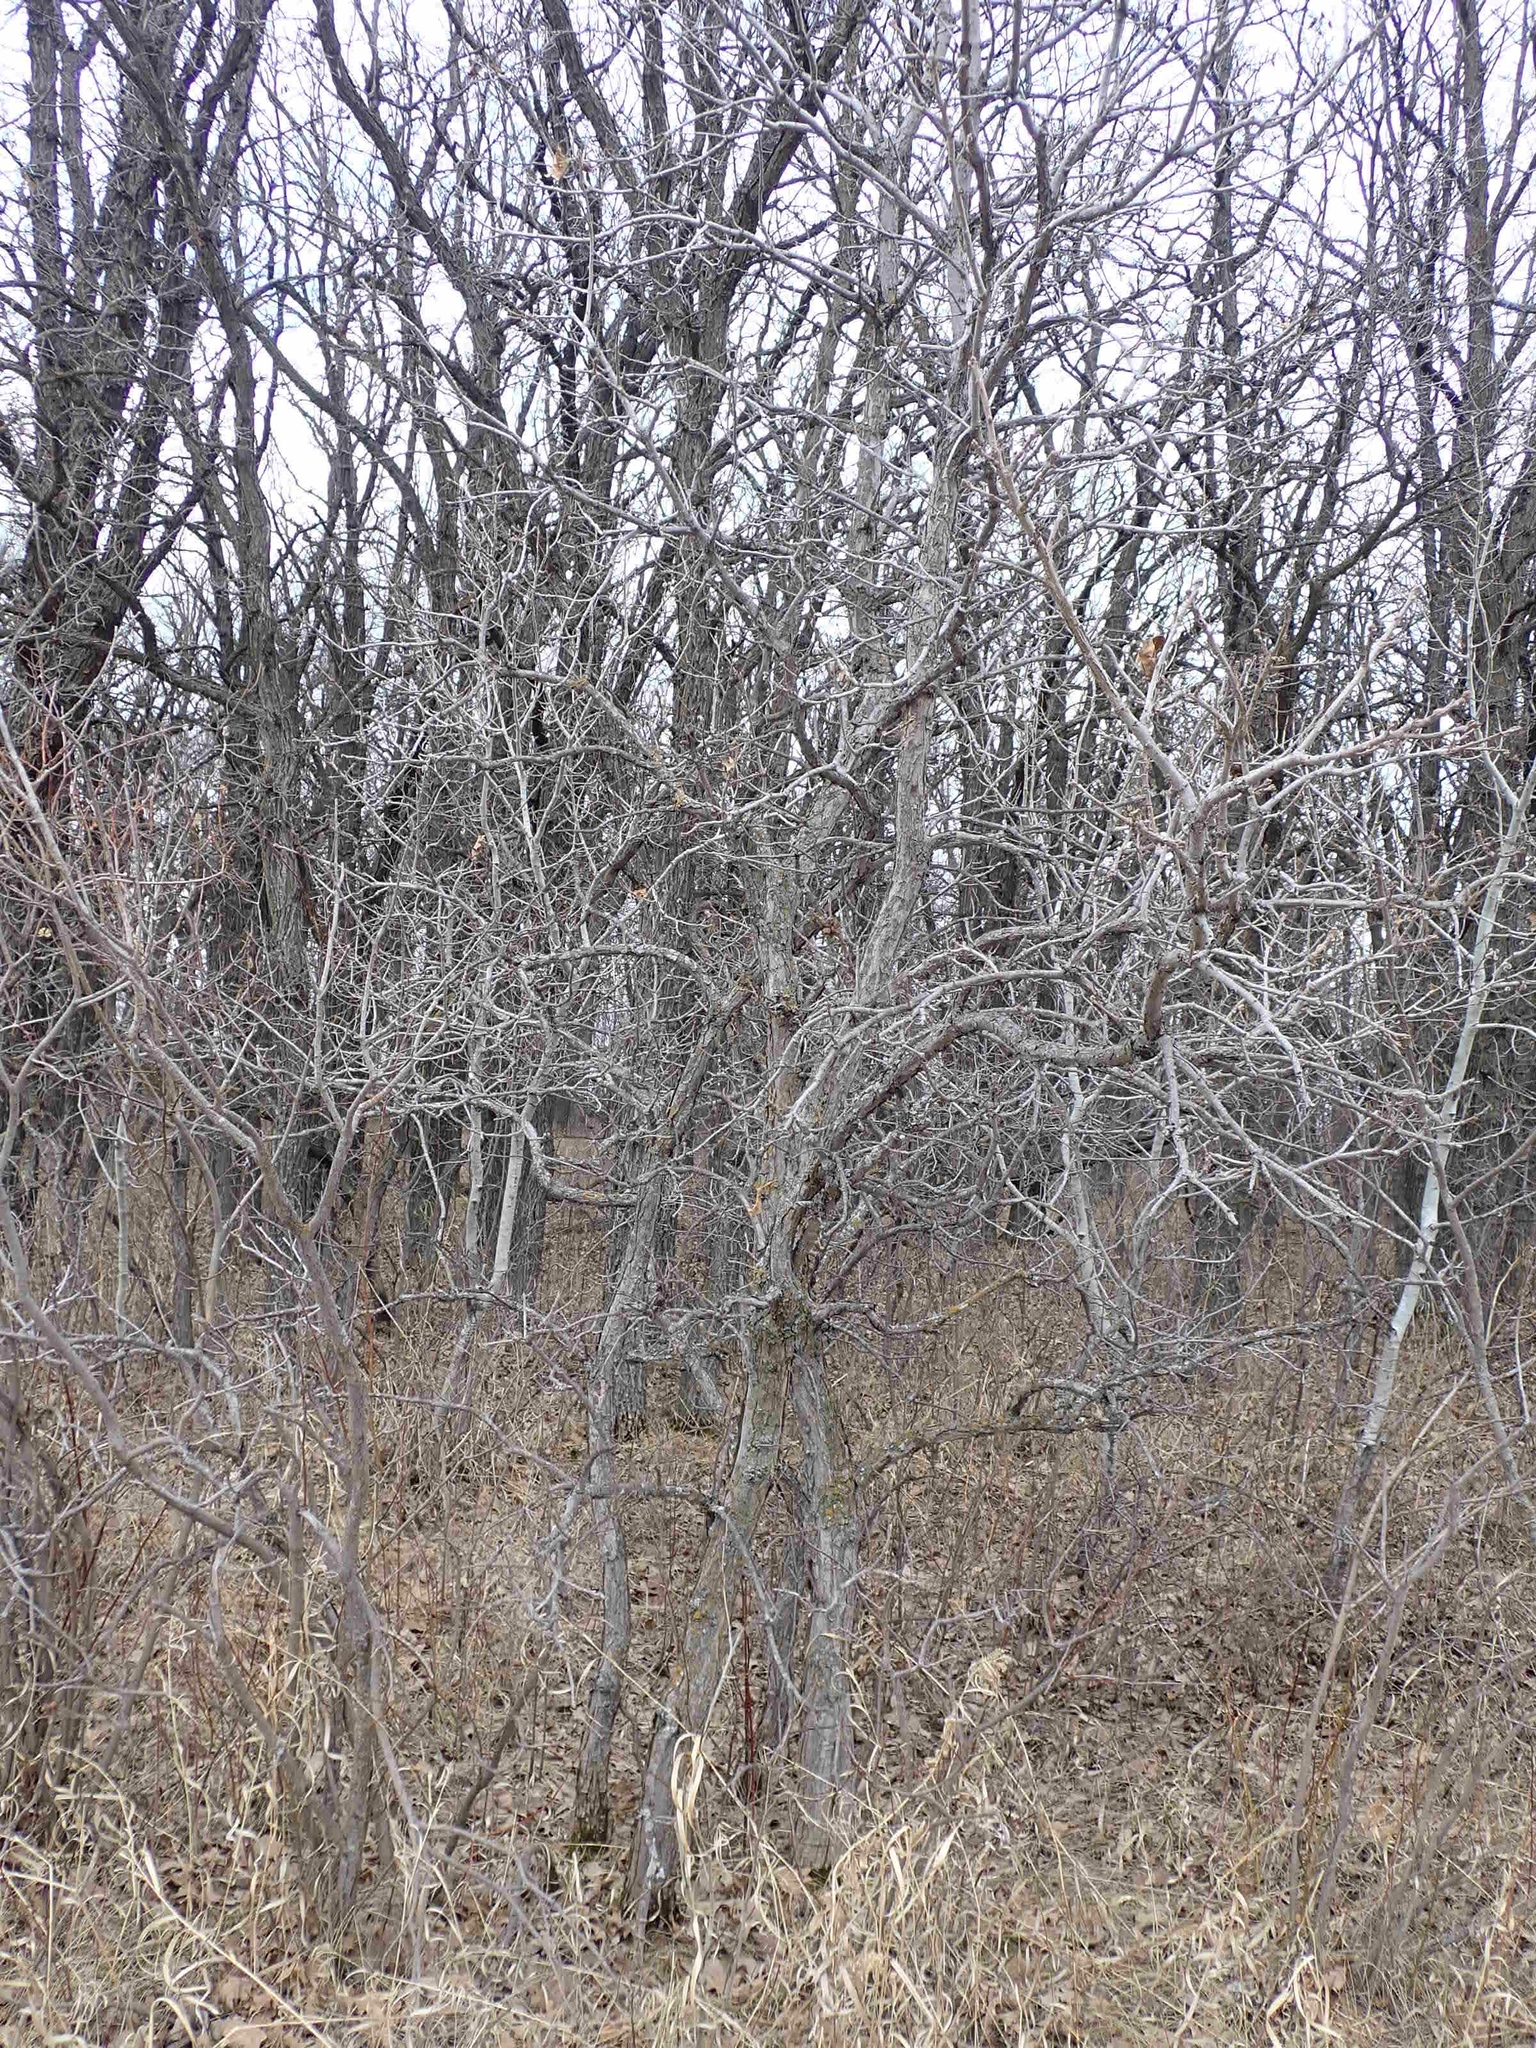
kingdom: Plantae
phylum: Tracheophyta
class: Magnoliopsida
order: Fagales
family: Fagaceae
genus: Quercus
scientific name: Quercus macrocarpa
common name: Bur oak
